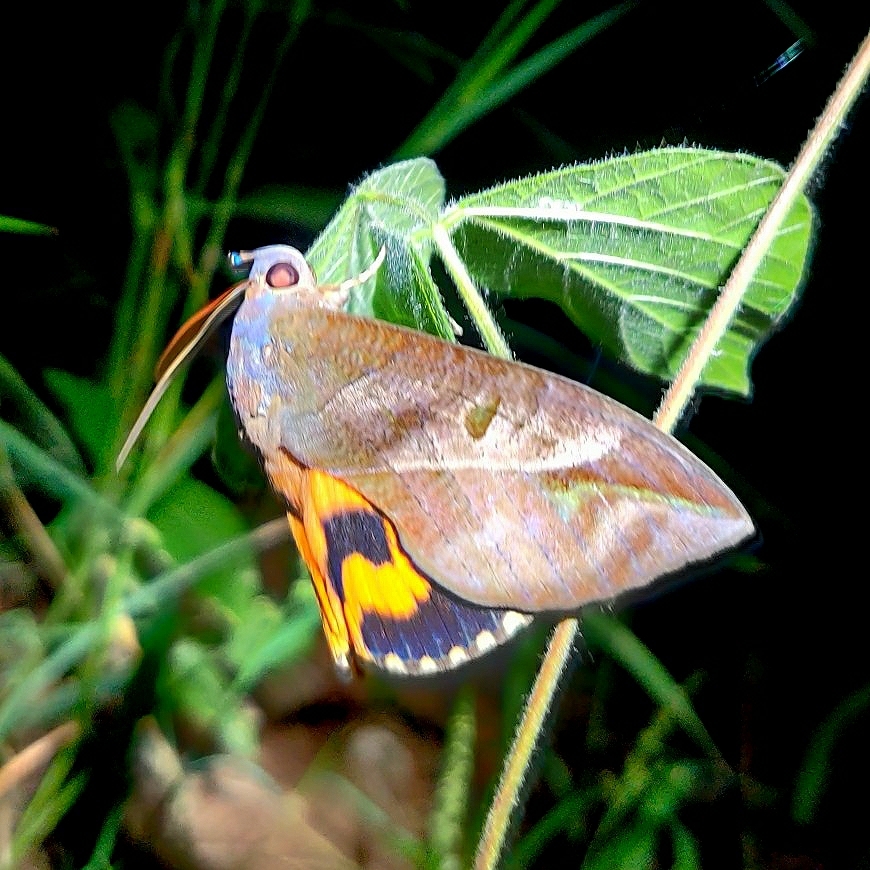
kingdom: Animalia
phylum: Arthropoda
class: Insecta
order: Lepidoptera
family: Erebidae
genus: Eudocima
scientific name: Eudocima phalonia
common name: Wasp
